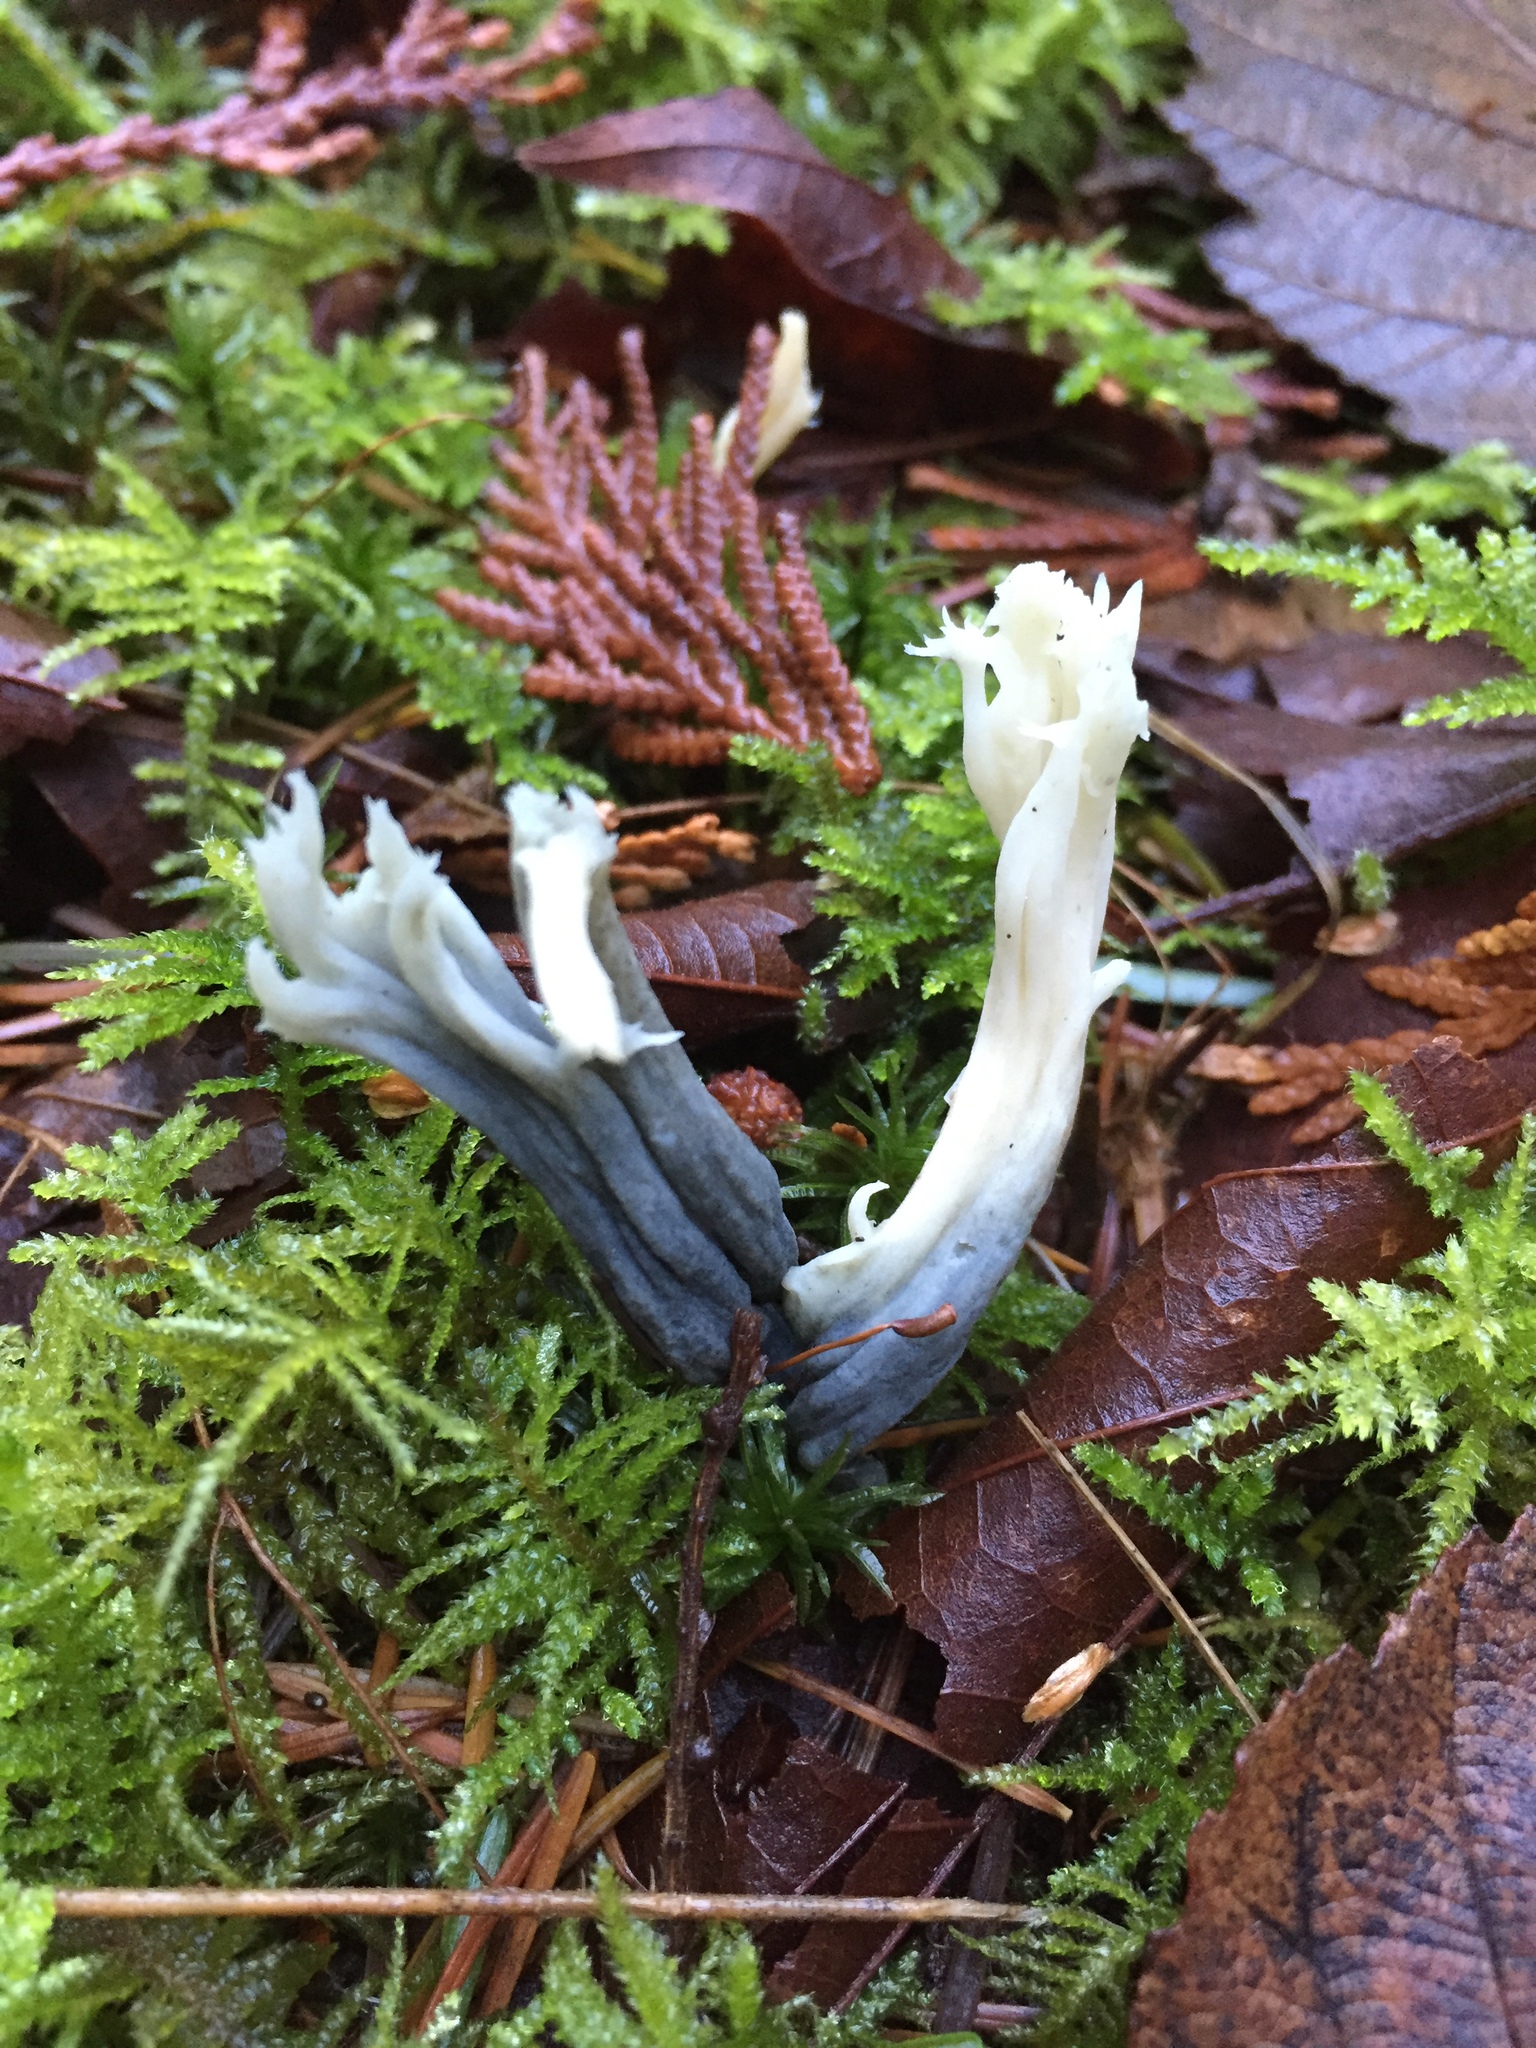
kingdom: Fungi
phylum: Ascomycota
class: Sordariomycetes
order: Xylariales
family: Xylariaceae
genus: Xylaria
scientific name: Xylaria hypoxylon
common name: Candle-snuff fungus
